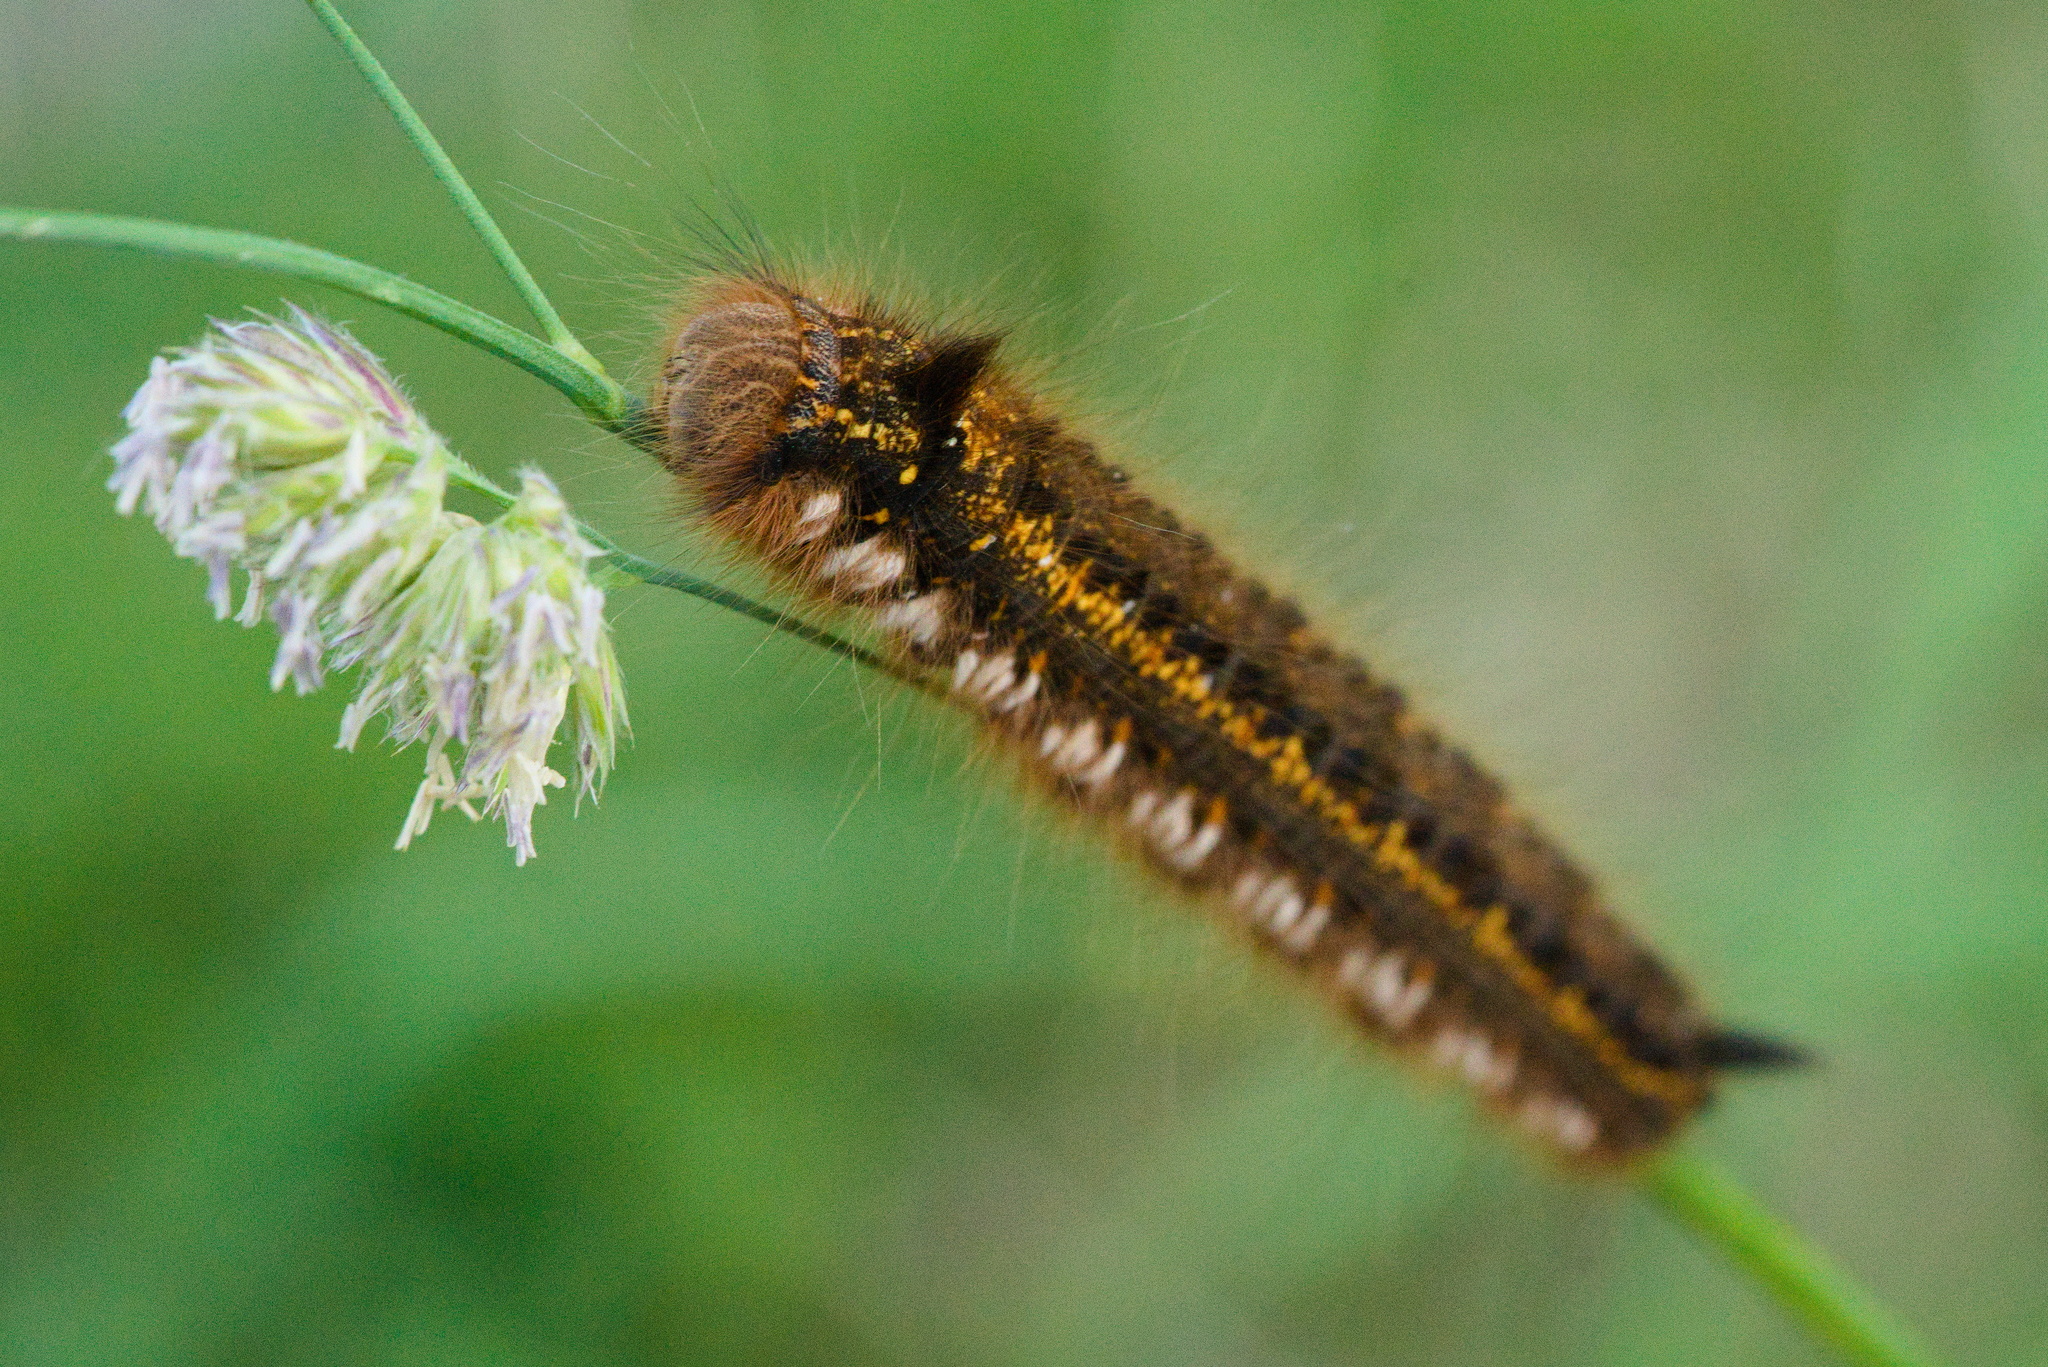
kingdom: Animalia
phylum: Arthropoda
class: Insecta
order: Lepidoptera
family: Lasiocampidae
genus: Euthrix
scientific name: Euthrix potatoria
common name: Drinker
